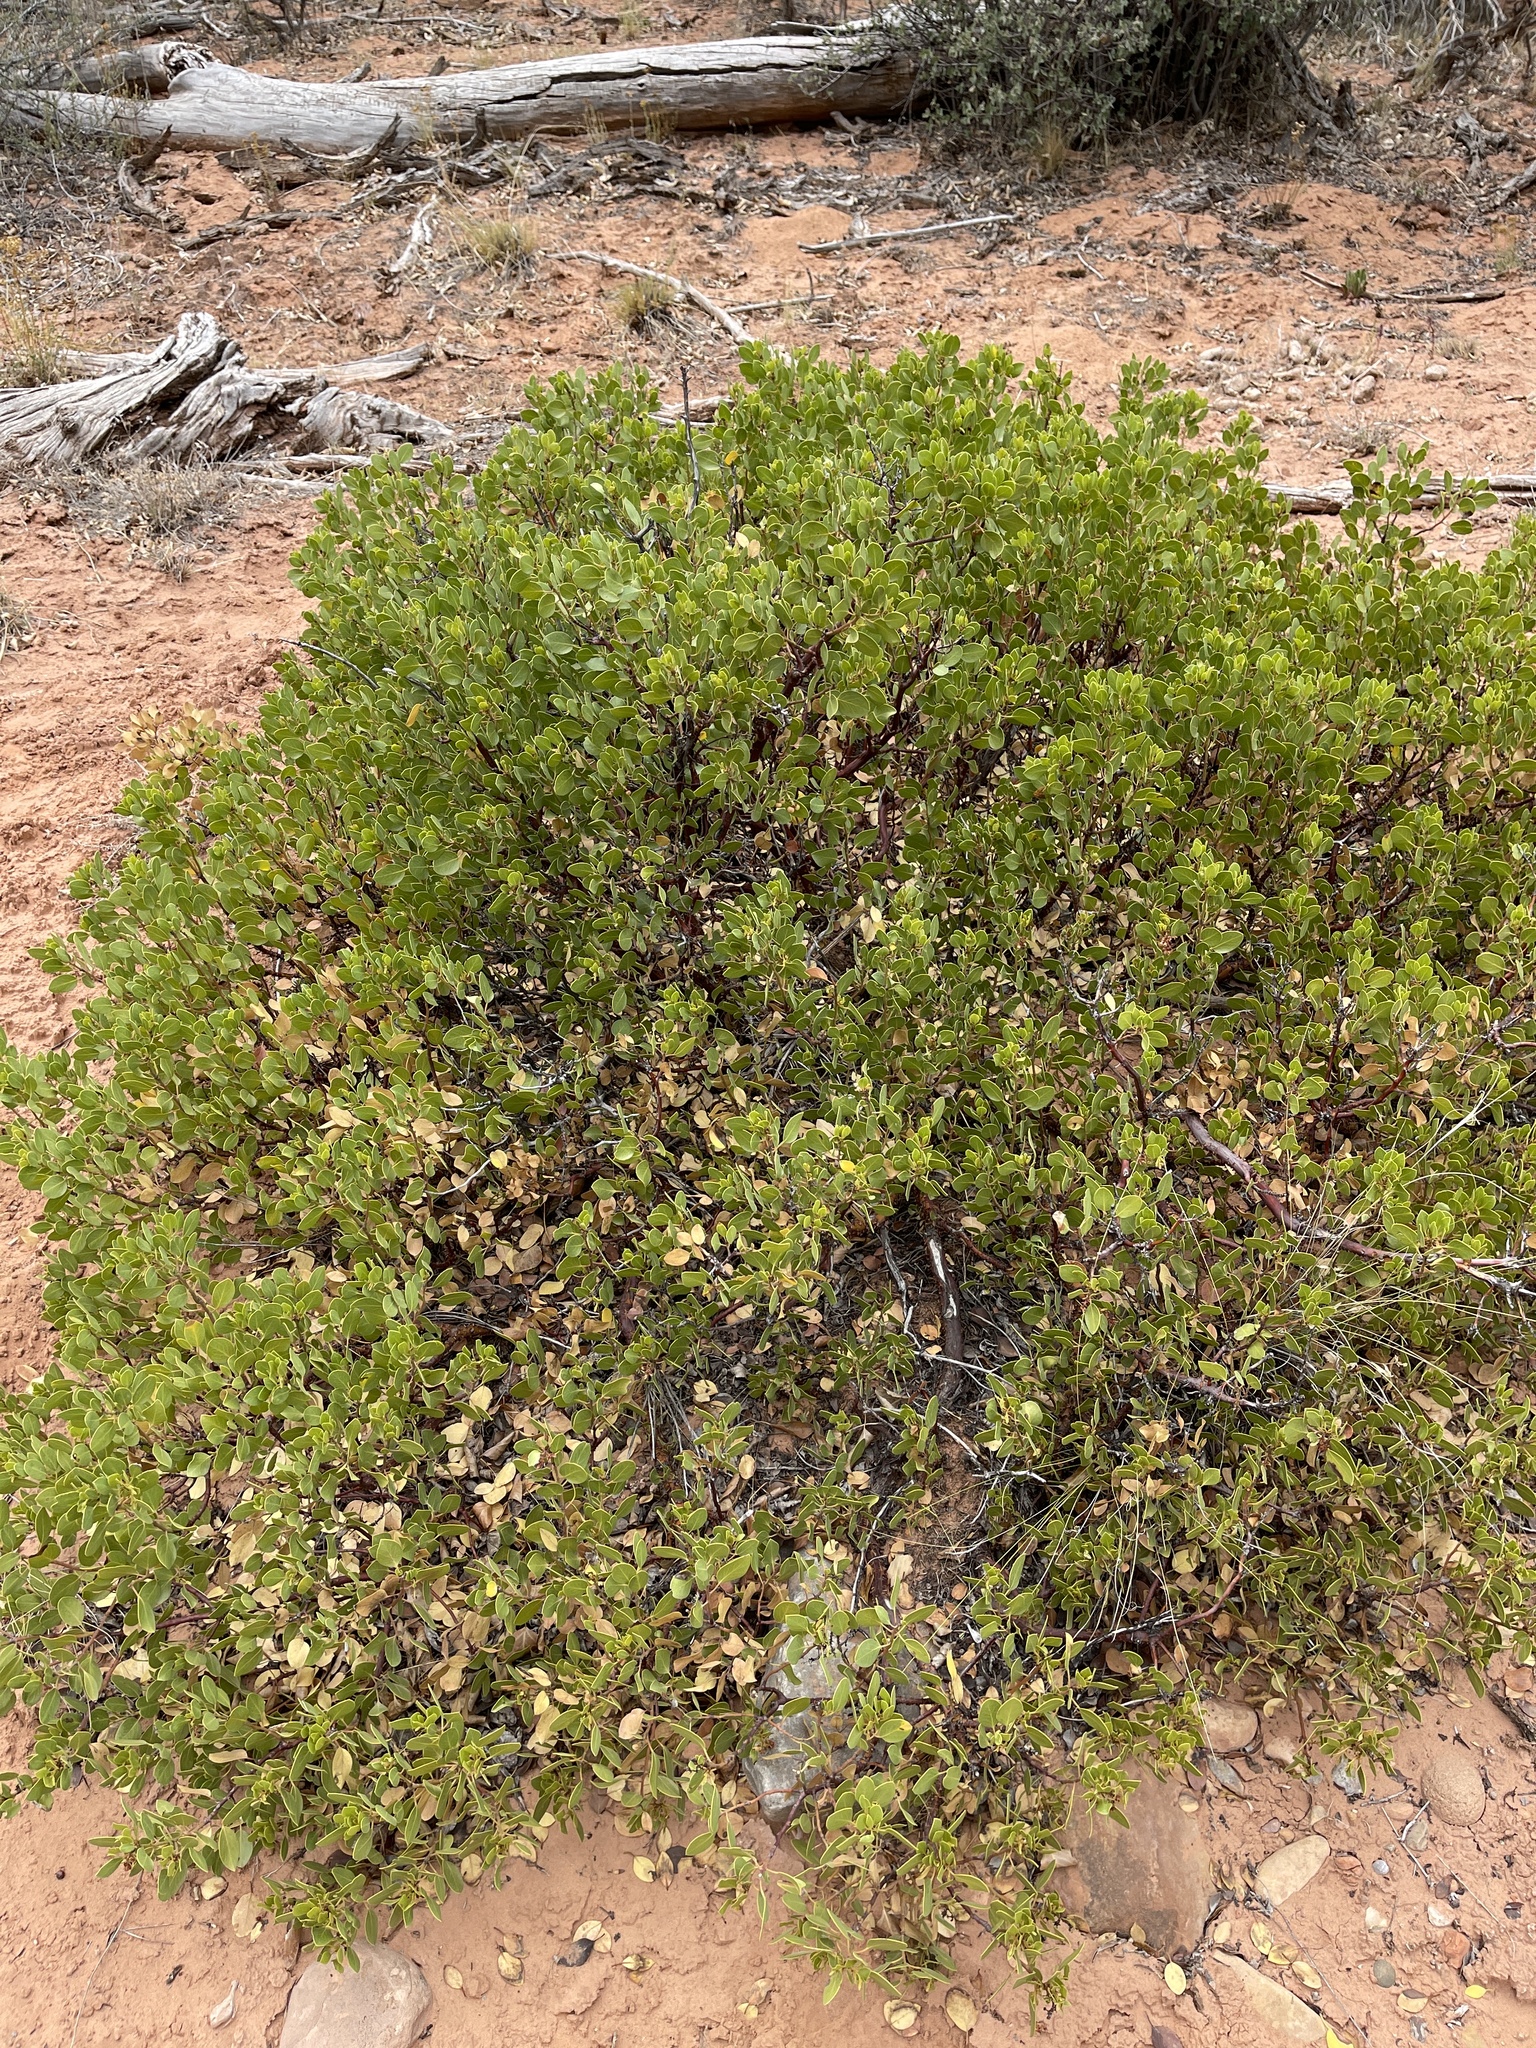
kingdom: Plantae
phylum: Tracheophyta
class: Magnoliopsida
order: Ericales
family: Ericaceae
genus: Arctostaphylos
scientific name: Arctostaphylos patula
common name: Green-leaf manzanita
